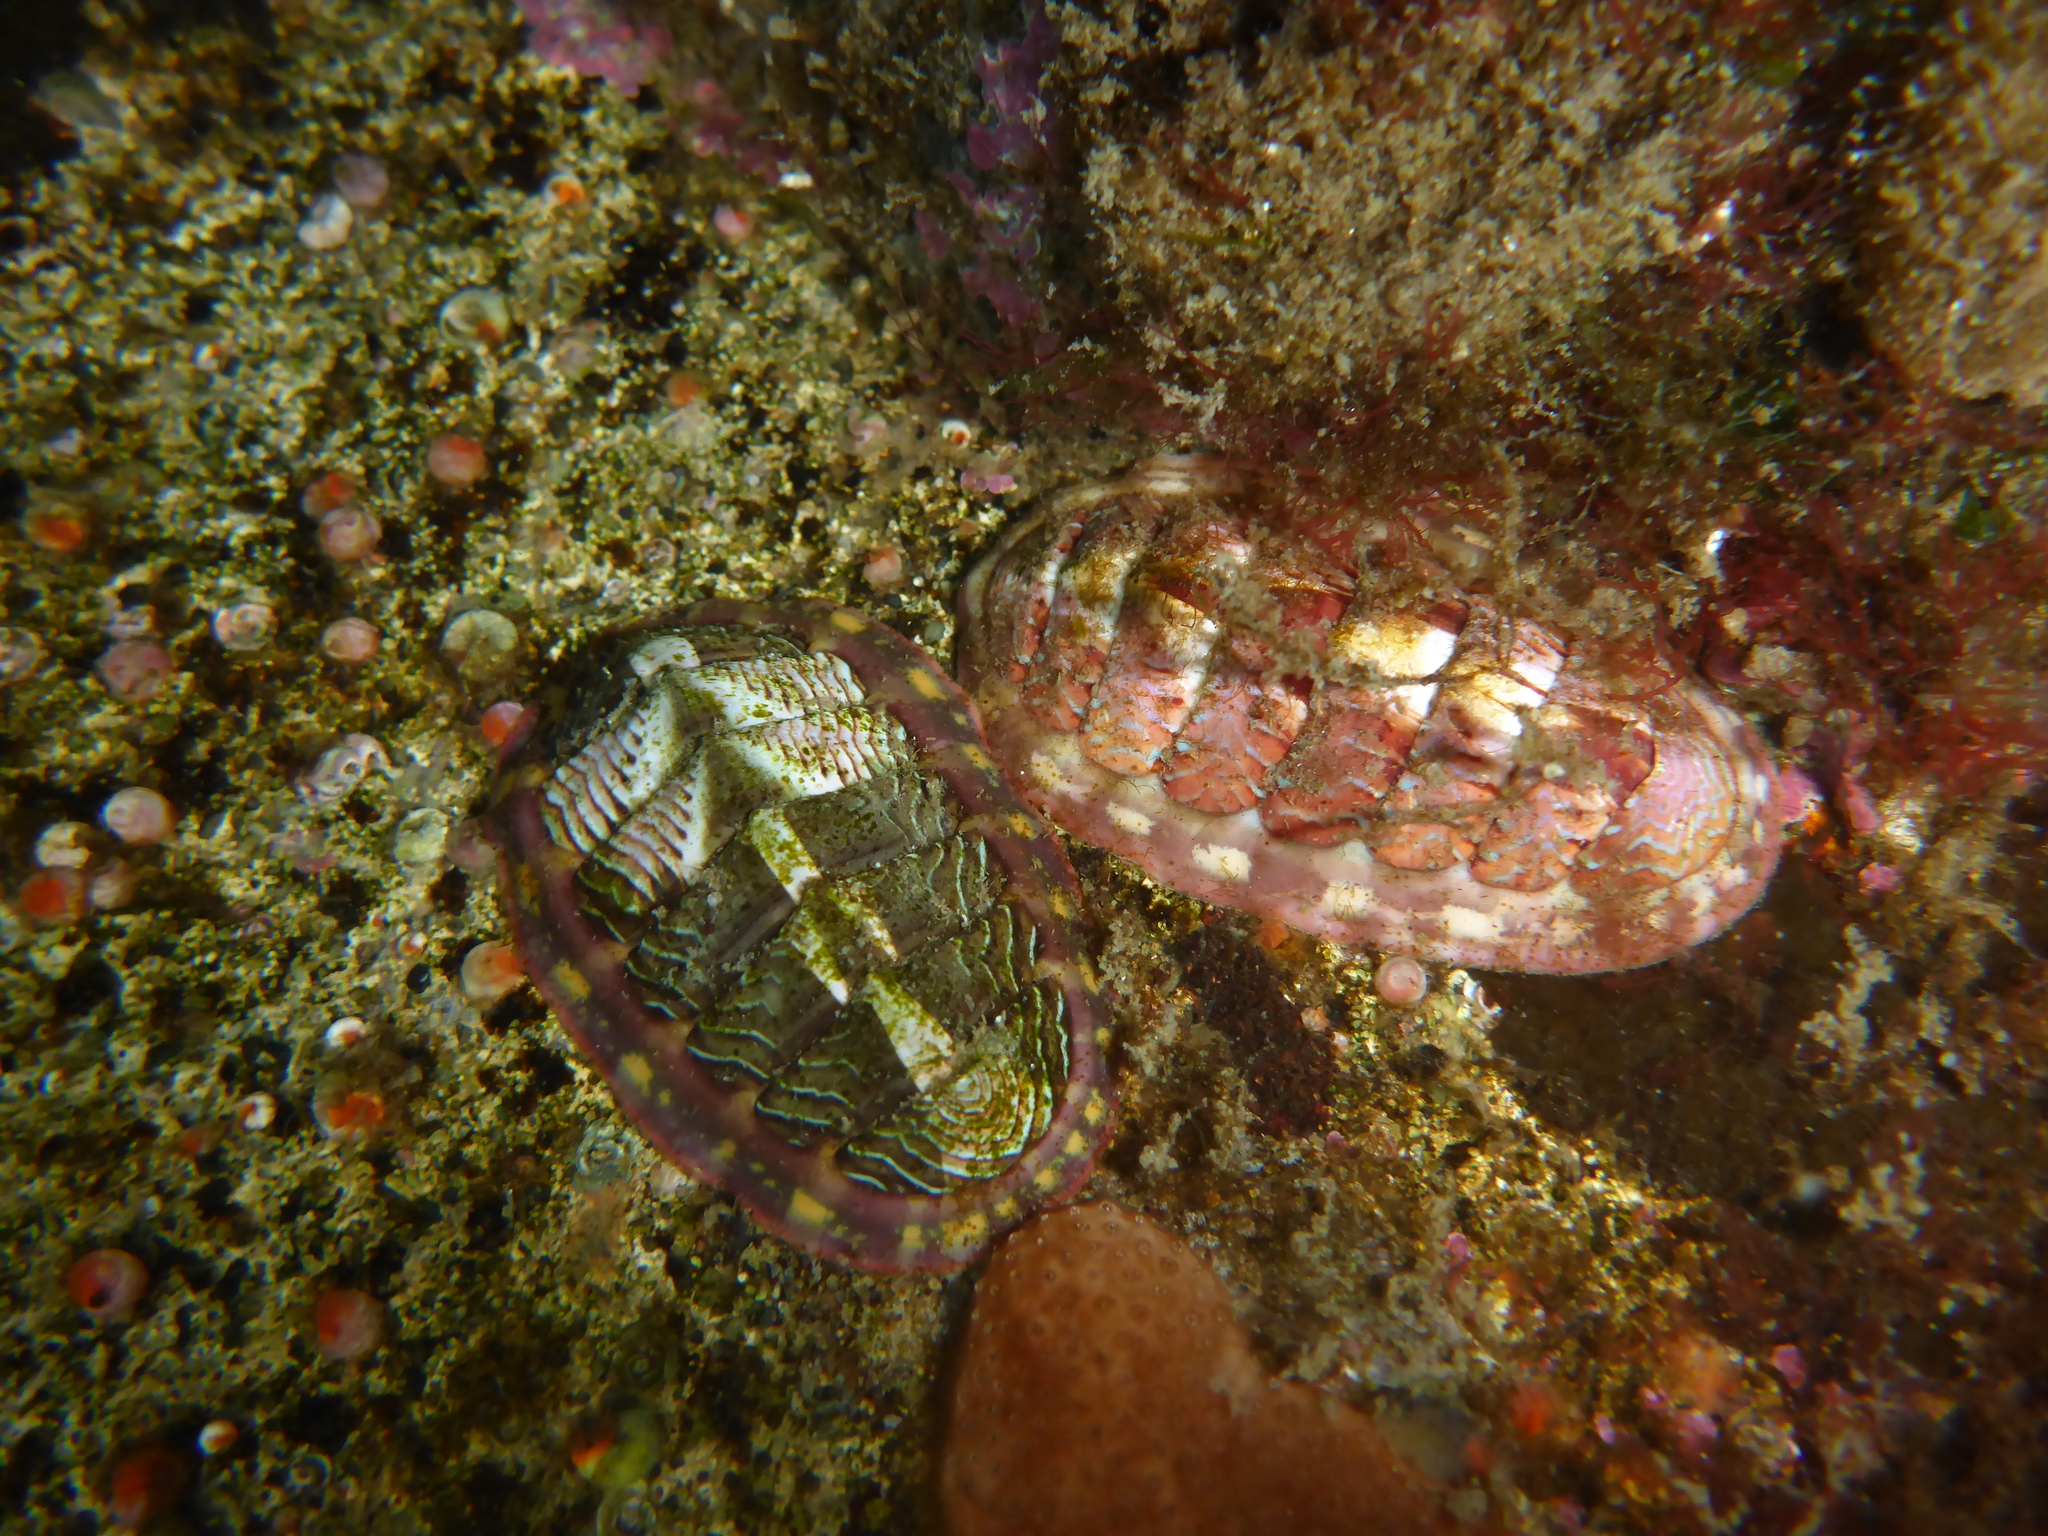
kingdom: Animalia
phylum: Mollusca
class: Polyplacophora
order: Chitonida
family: Tonicellidae
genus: Tonicella
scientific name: Tonicella lineata
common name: Lined chiton
